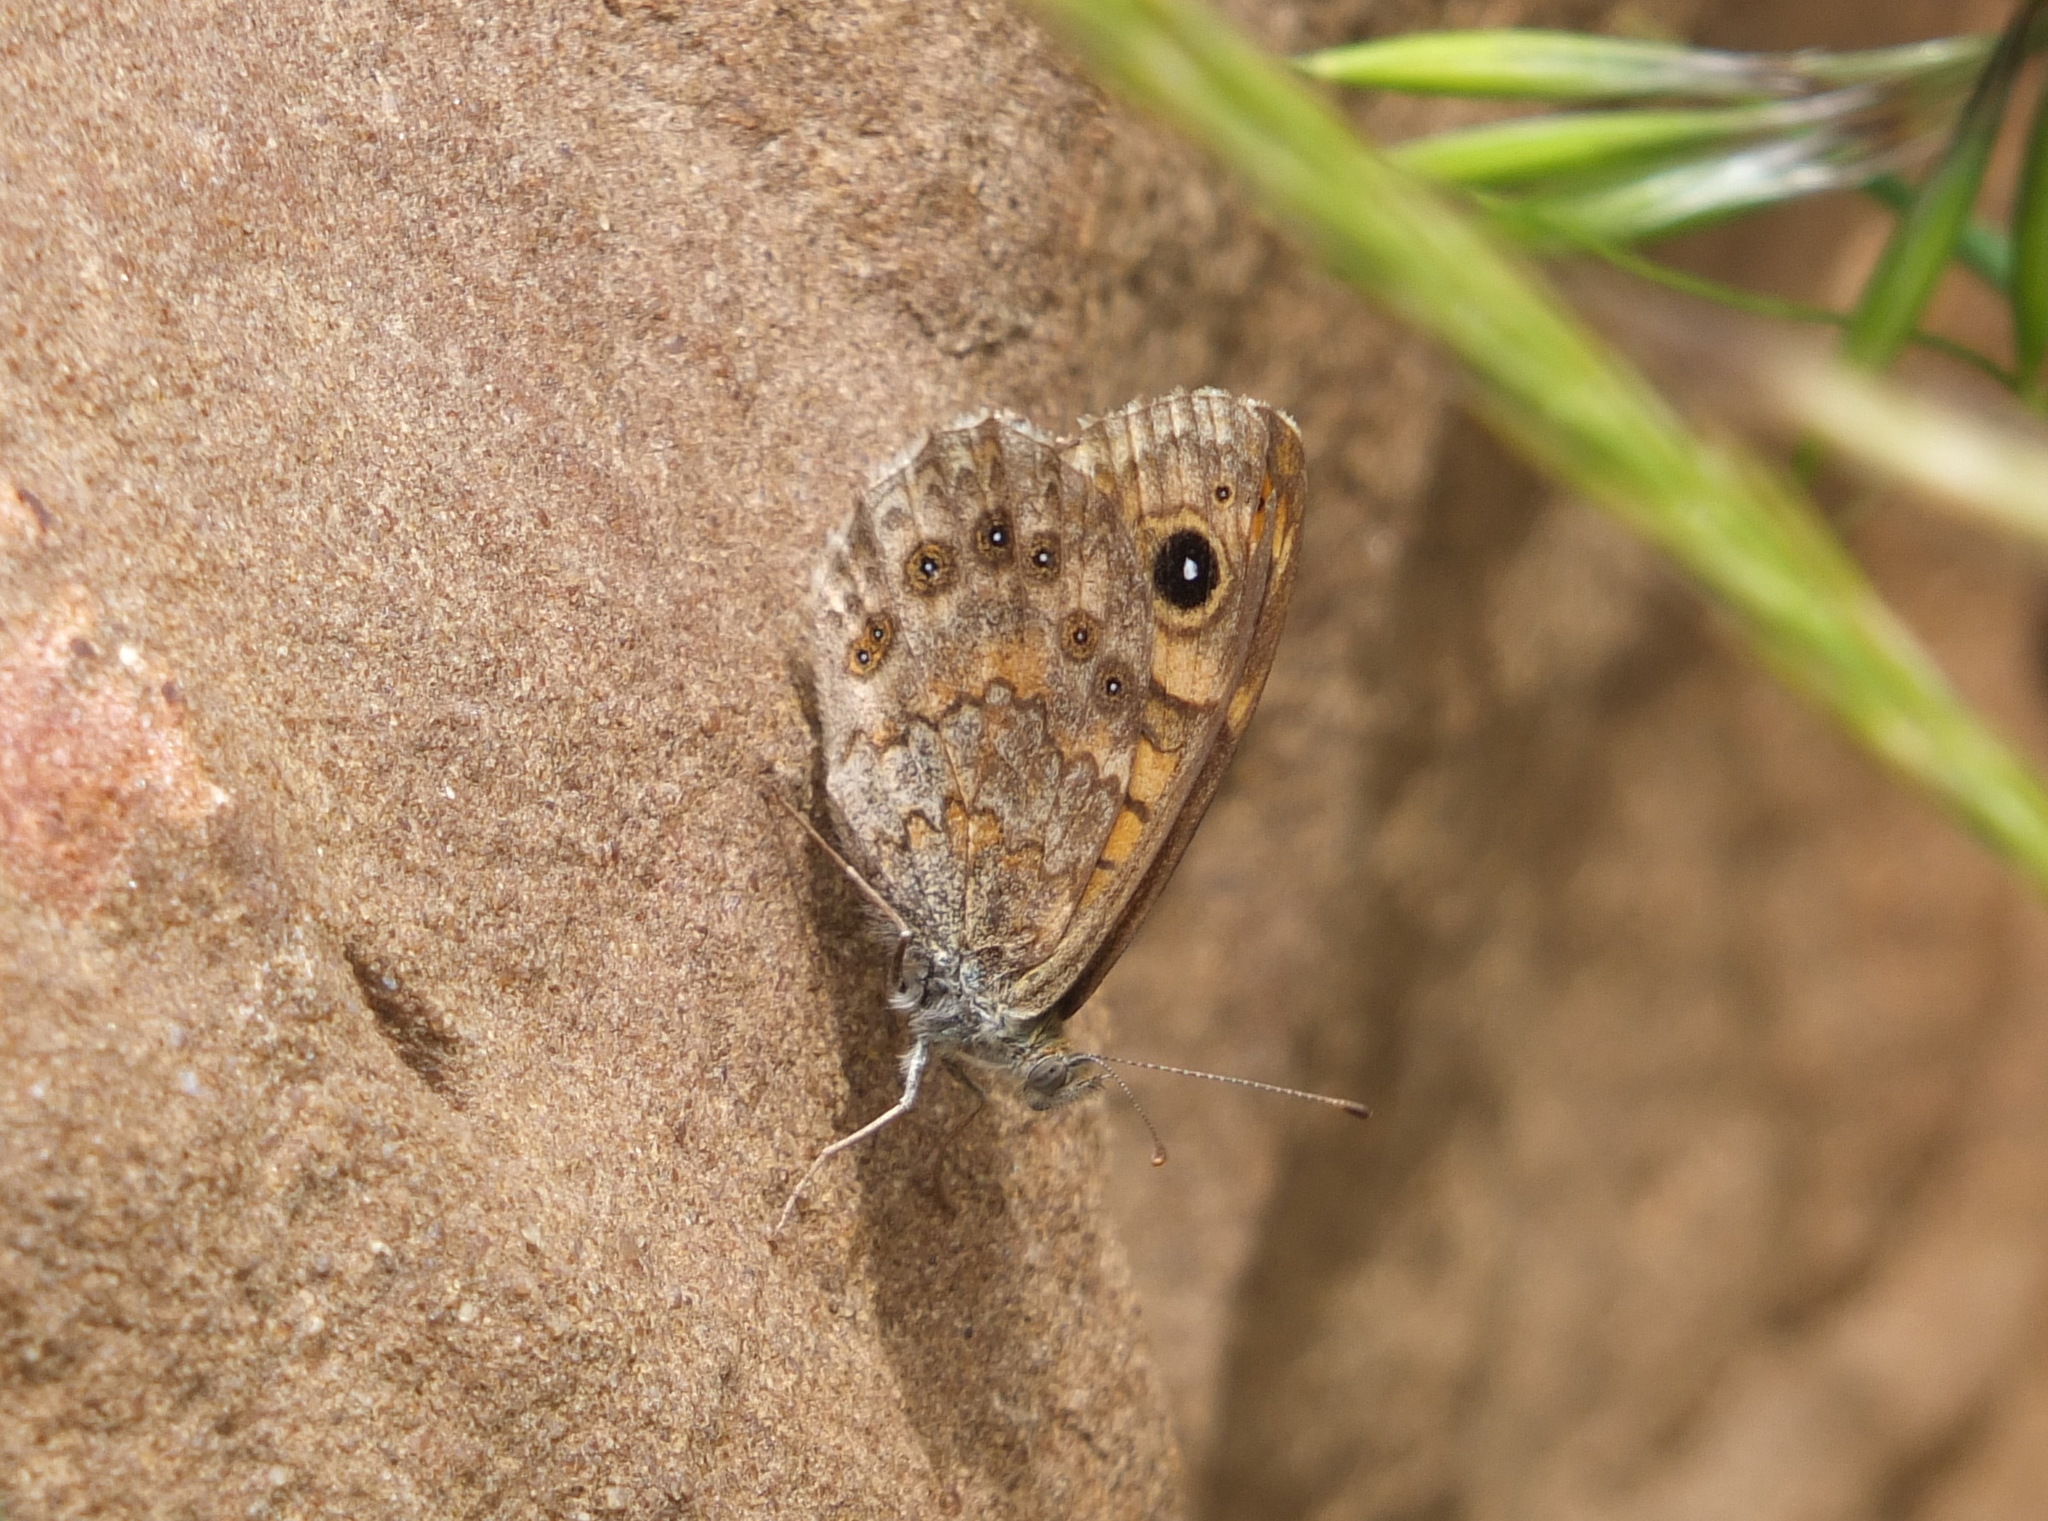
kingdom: Animalia
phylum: Arthropoda
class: Insecta
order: Lepidoptera
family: Nymphalidae
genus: Pararge
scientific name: Pararge Lasiommata megera
